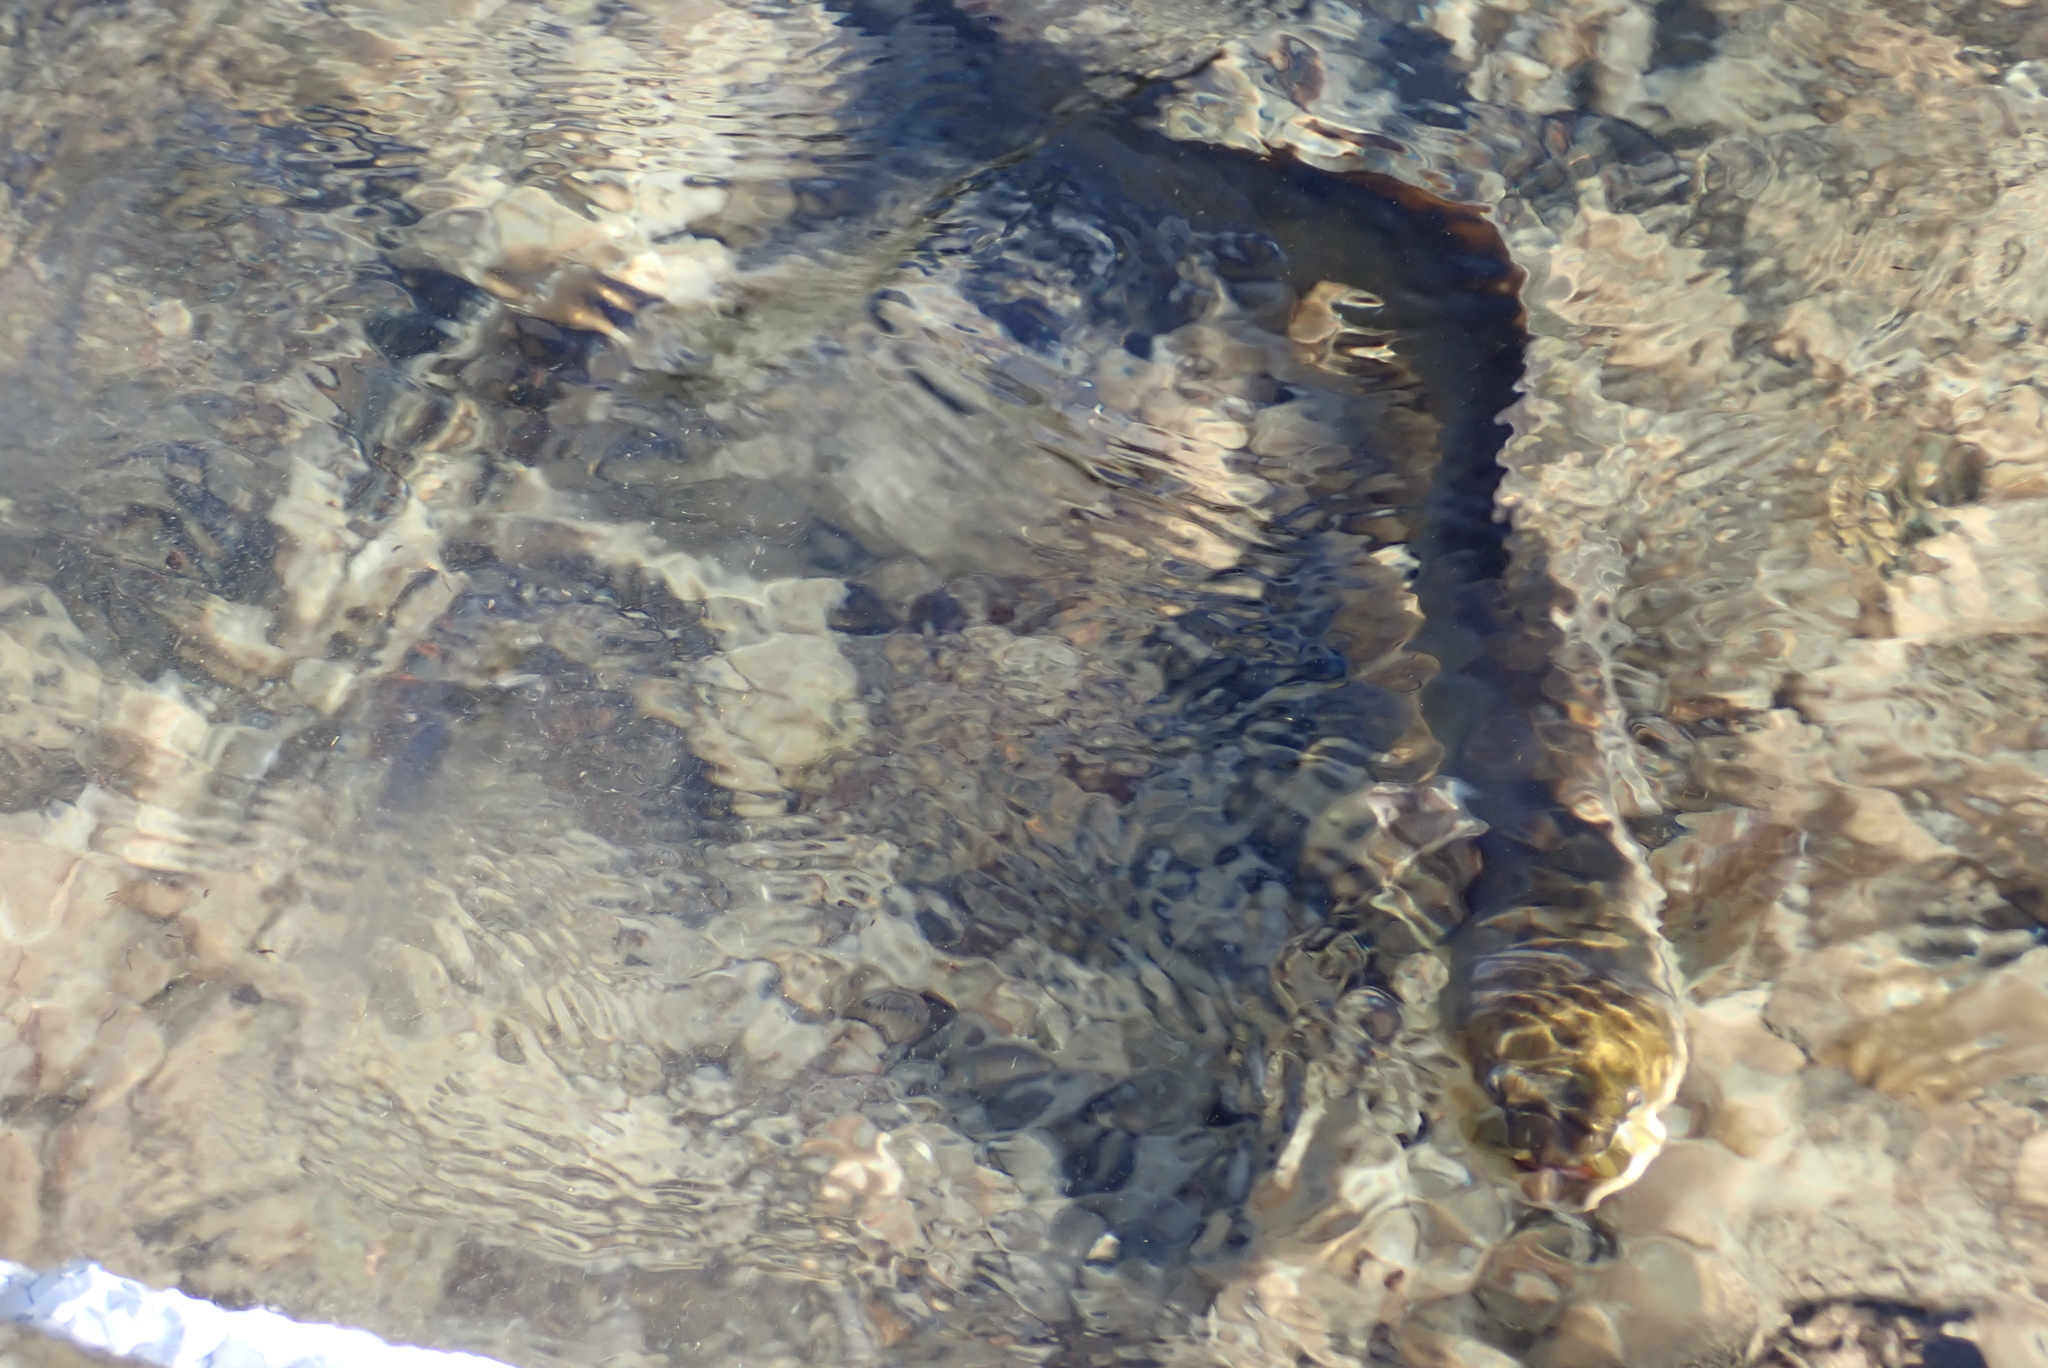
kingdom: Animalia
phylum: Chordata
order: Anguilliformes
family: Anguillidae
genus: Anguilla
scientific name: Anguilla dieffenbachii
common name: New zealand longfin eel
